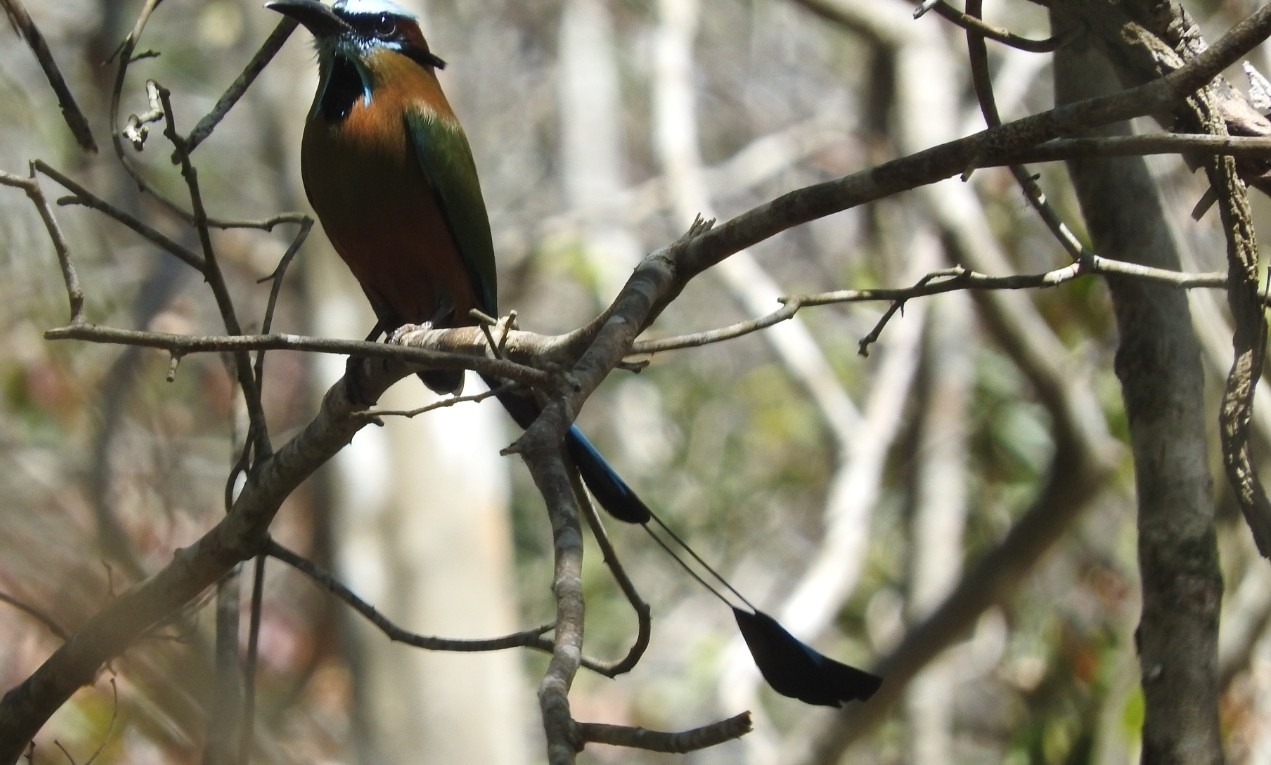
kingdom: Animalia
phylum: Chordata
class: Aves
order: Coraciiformes
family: Momotidae
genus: Eumomota
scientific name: Eumomota superciliosa
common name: Turquoise-browed motmot
